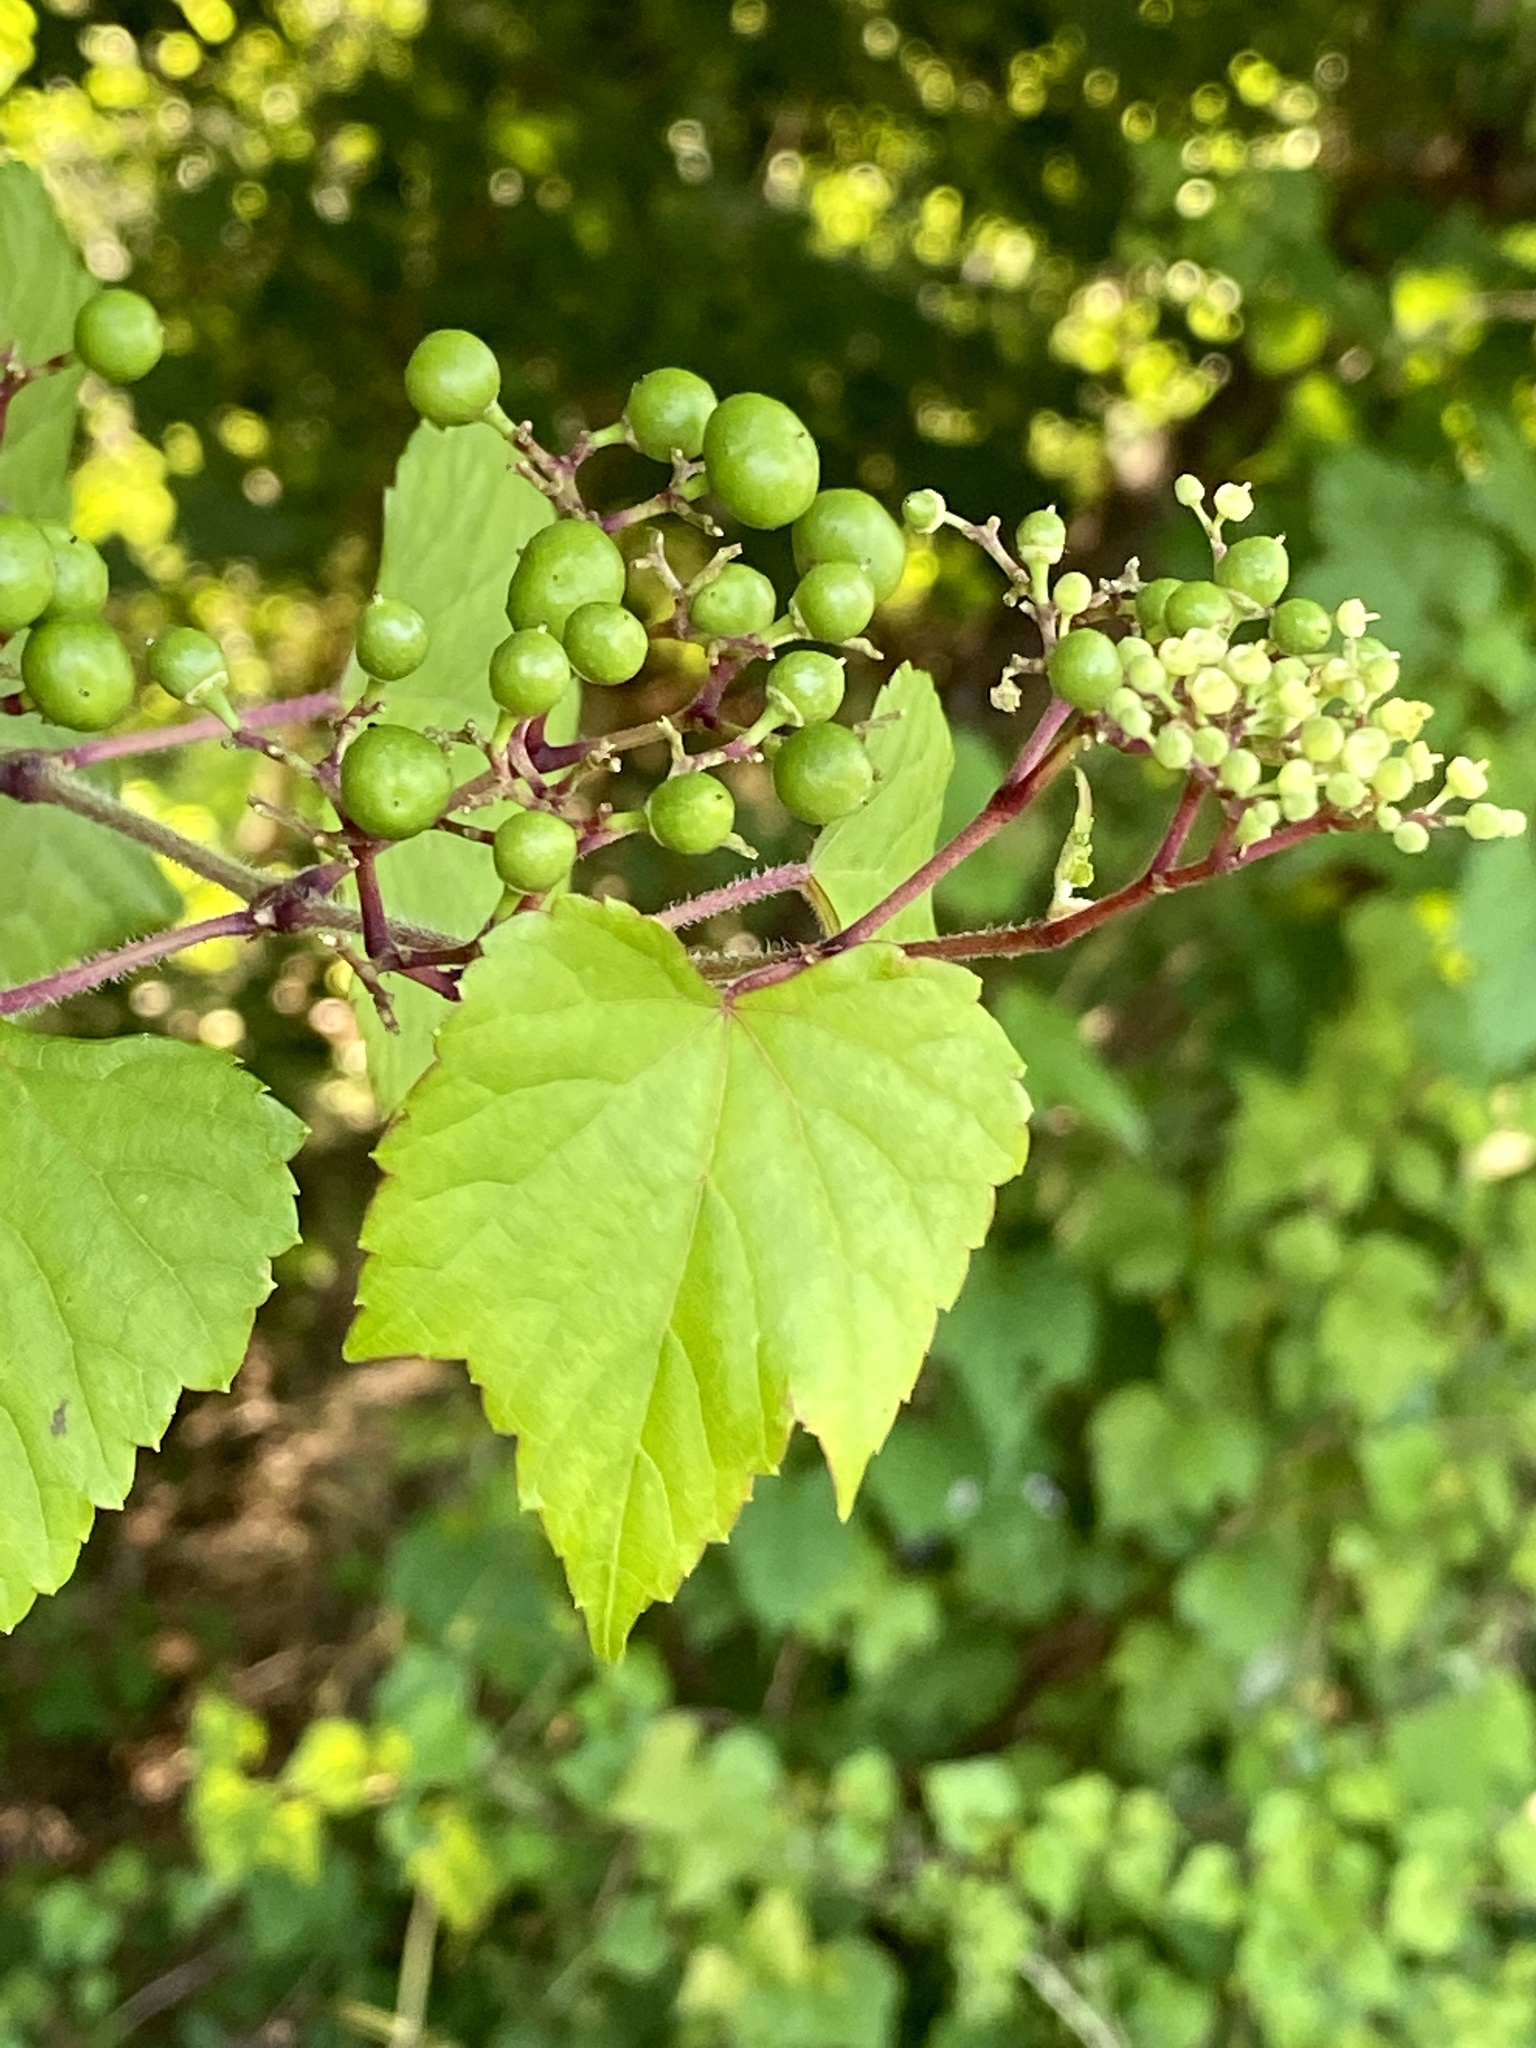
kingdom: Plantae
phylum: Tracheophyta
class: Magnoliopsida
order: Vitales
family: Vitaceae
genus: Ampelopsis
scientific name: Ampelopsis glandulosa
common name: Amur peppervine
